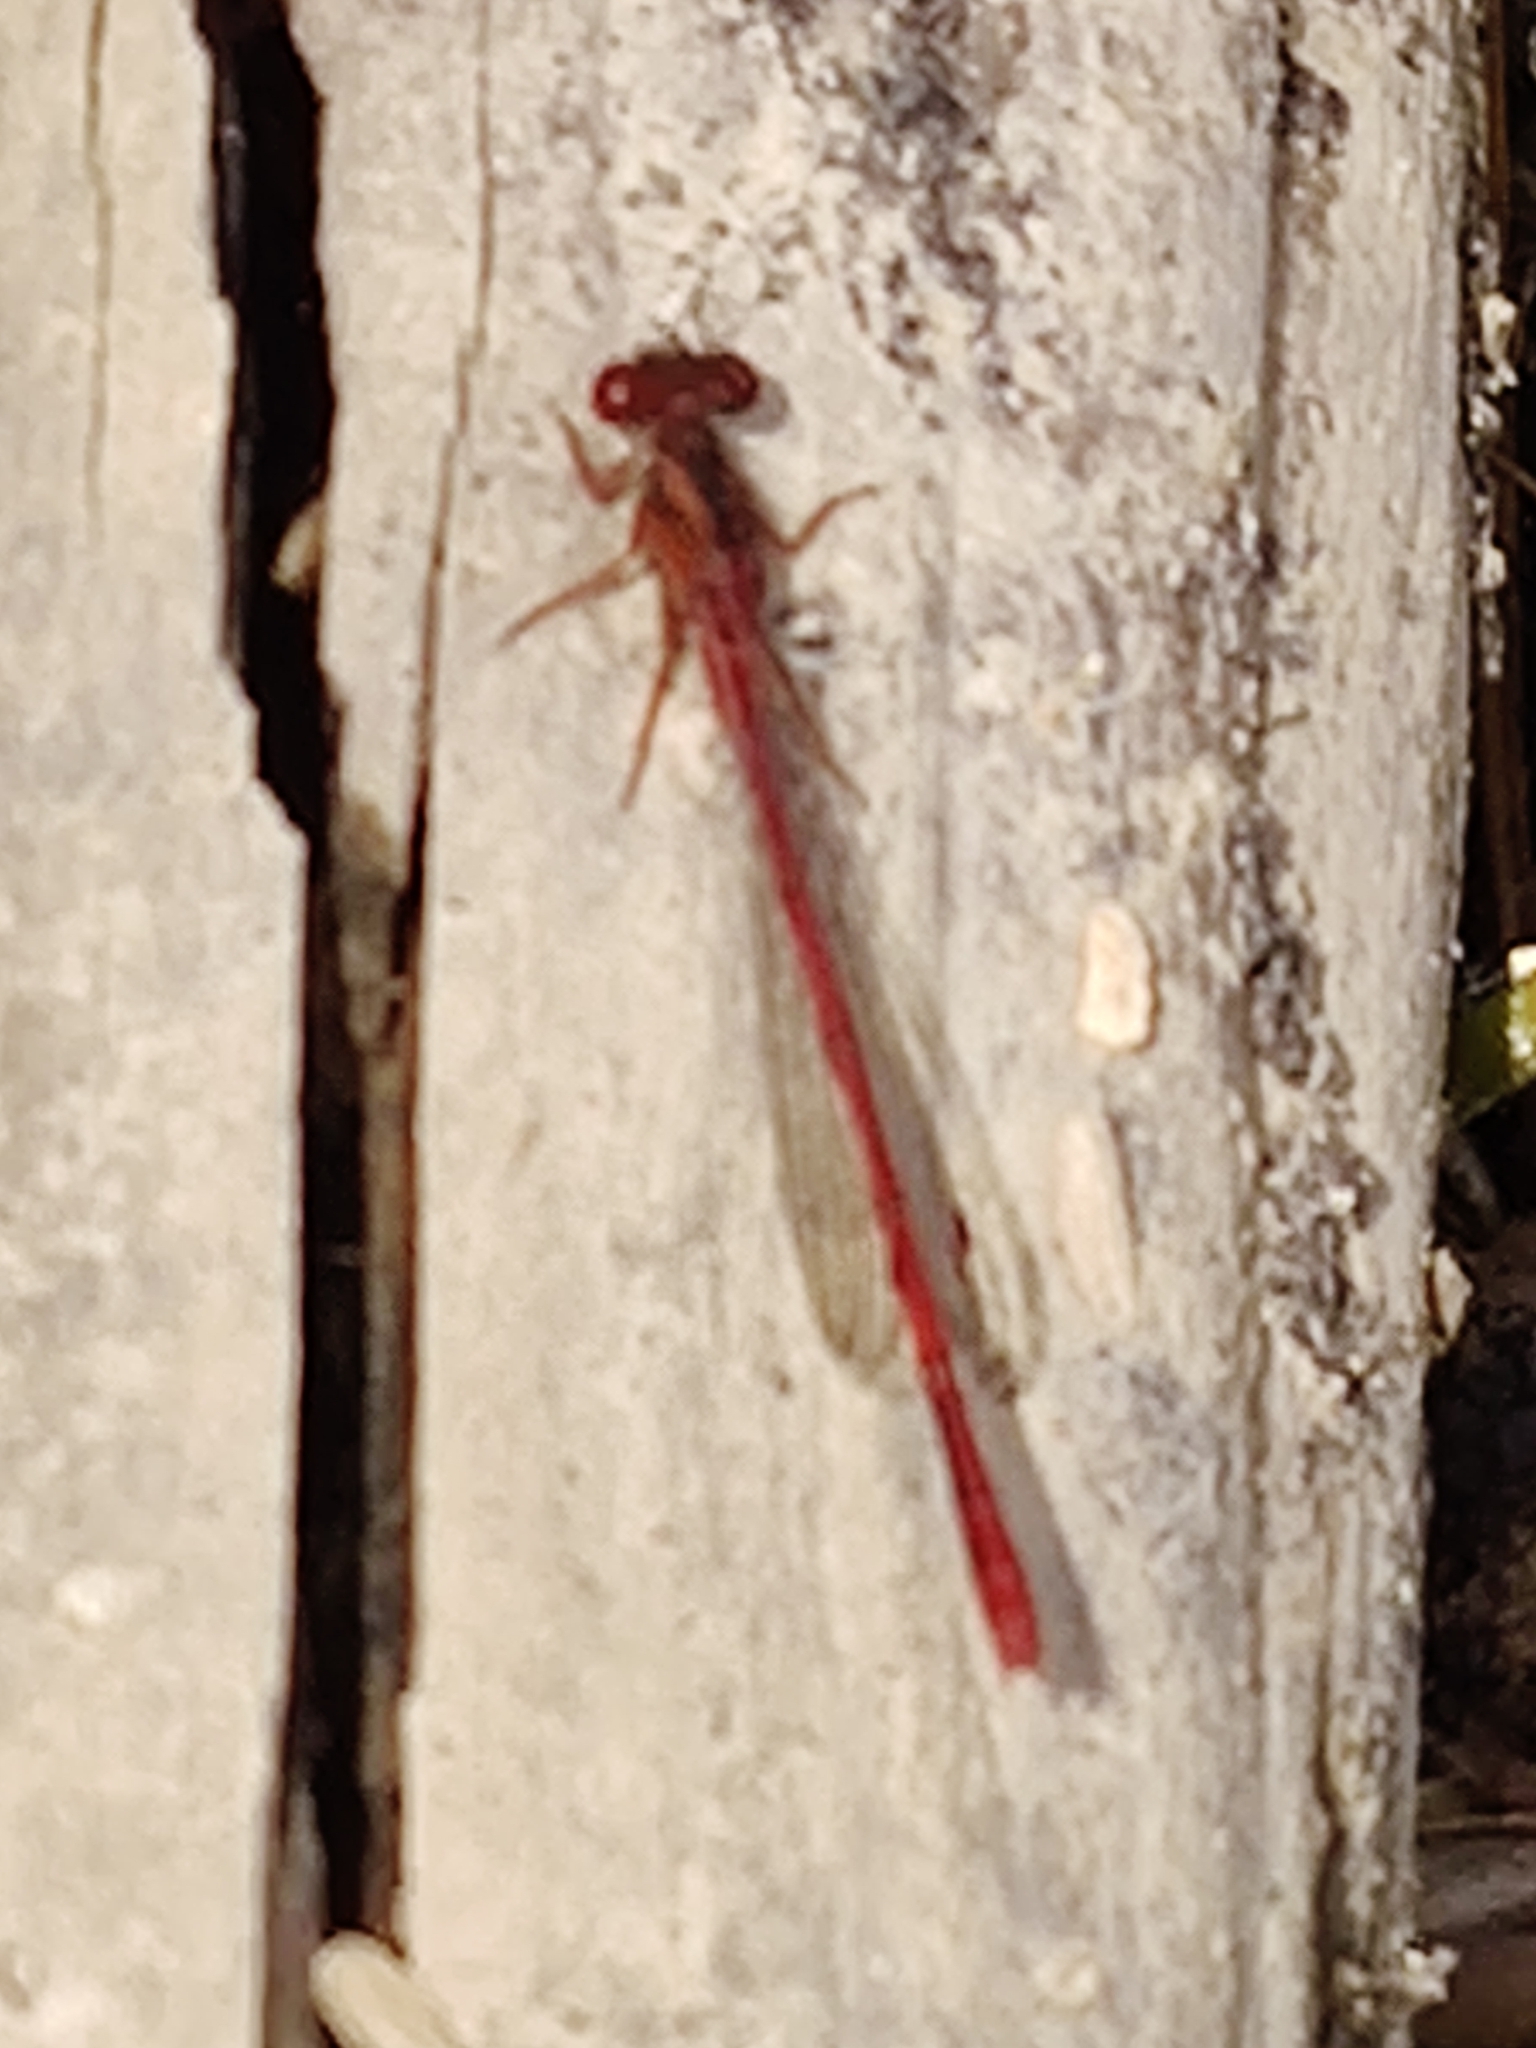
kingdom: Animalia
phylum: Arthropoda
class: Insecta
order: Odonata
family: Coenagrionidae
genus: Xanthocnemis
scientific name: Xanthocnemis zealandica
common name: Common redcoat damselfly
